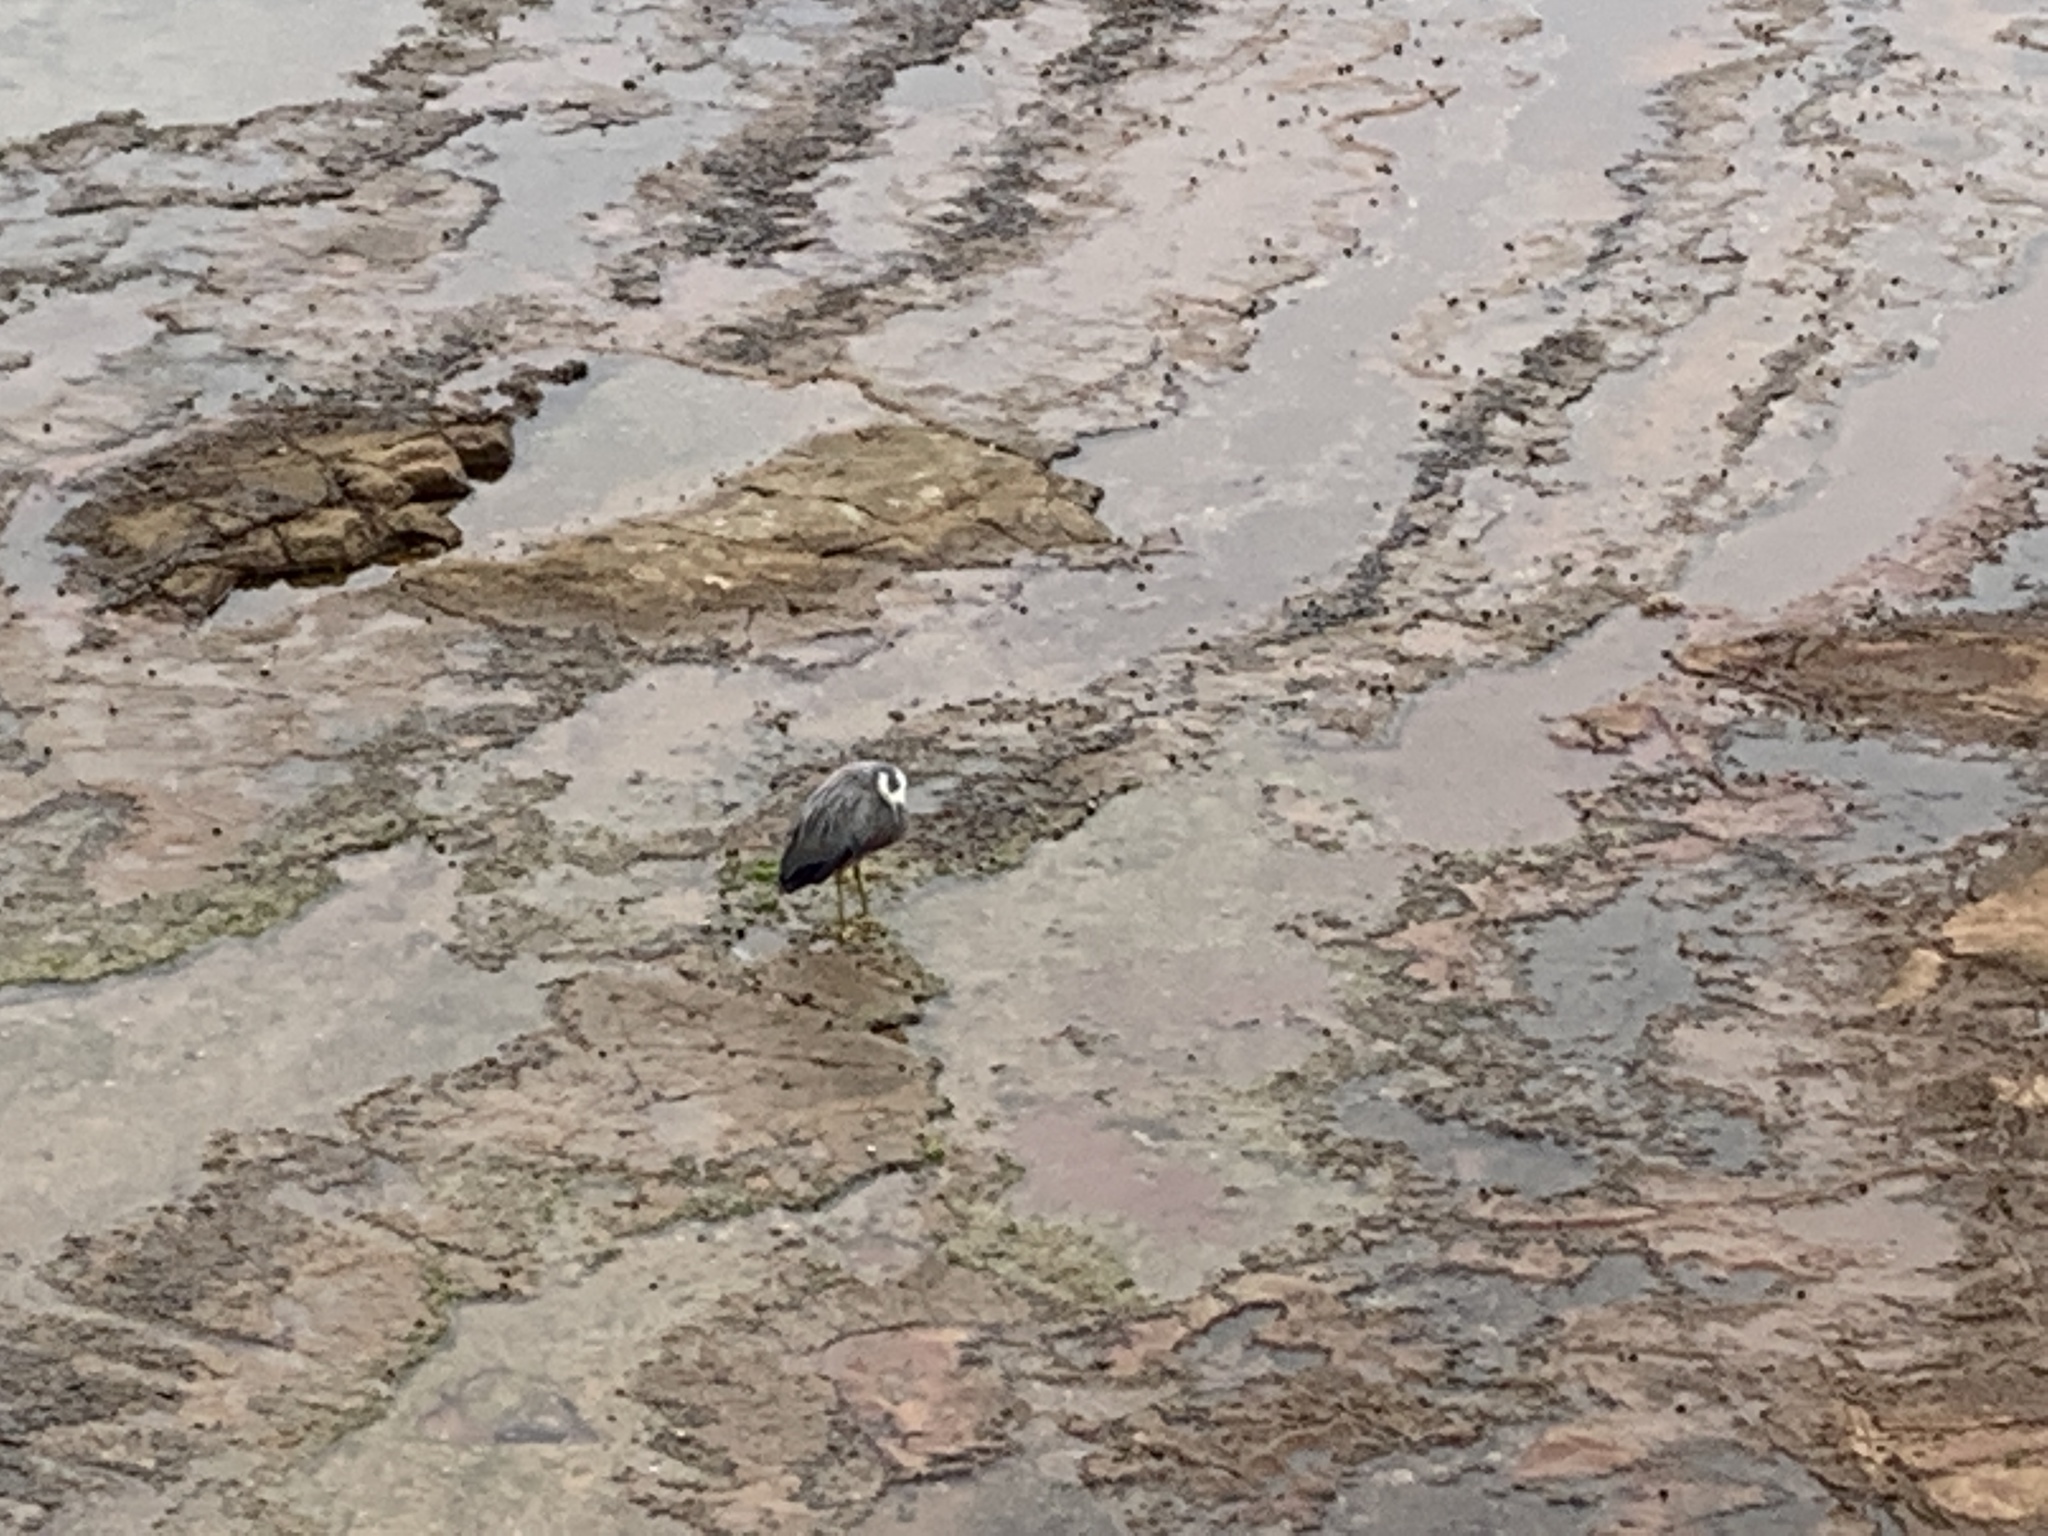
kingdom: Animalia
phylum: Chordata
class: Aves
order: Pelecaniformes
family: Ardeidae
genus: Egretta
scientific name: Egretta novaehollandiae
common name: White-faced heron
